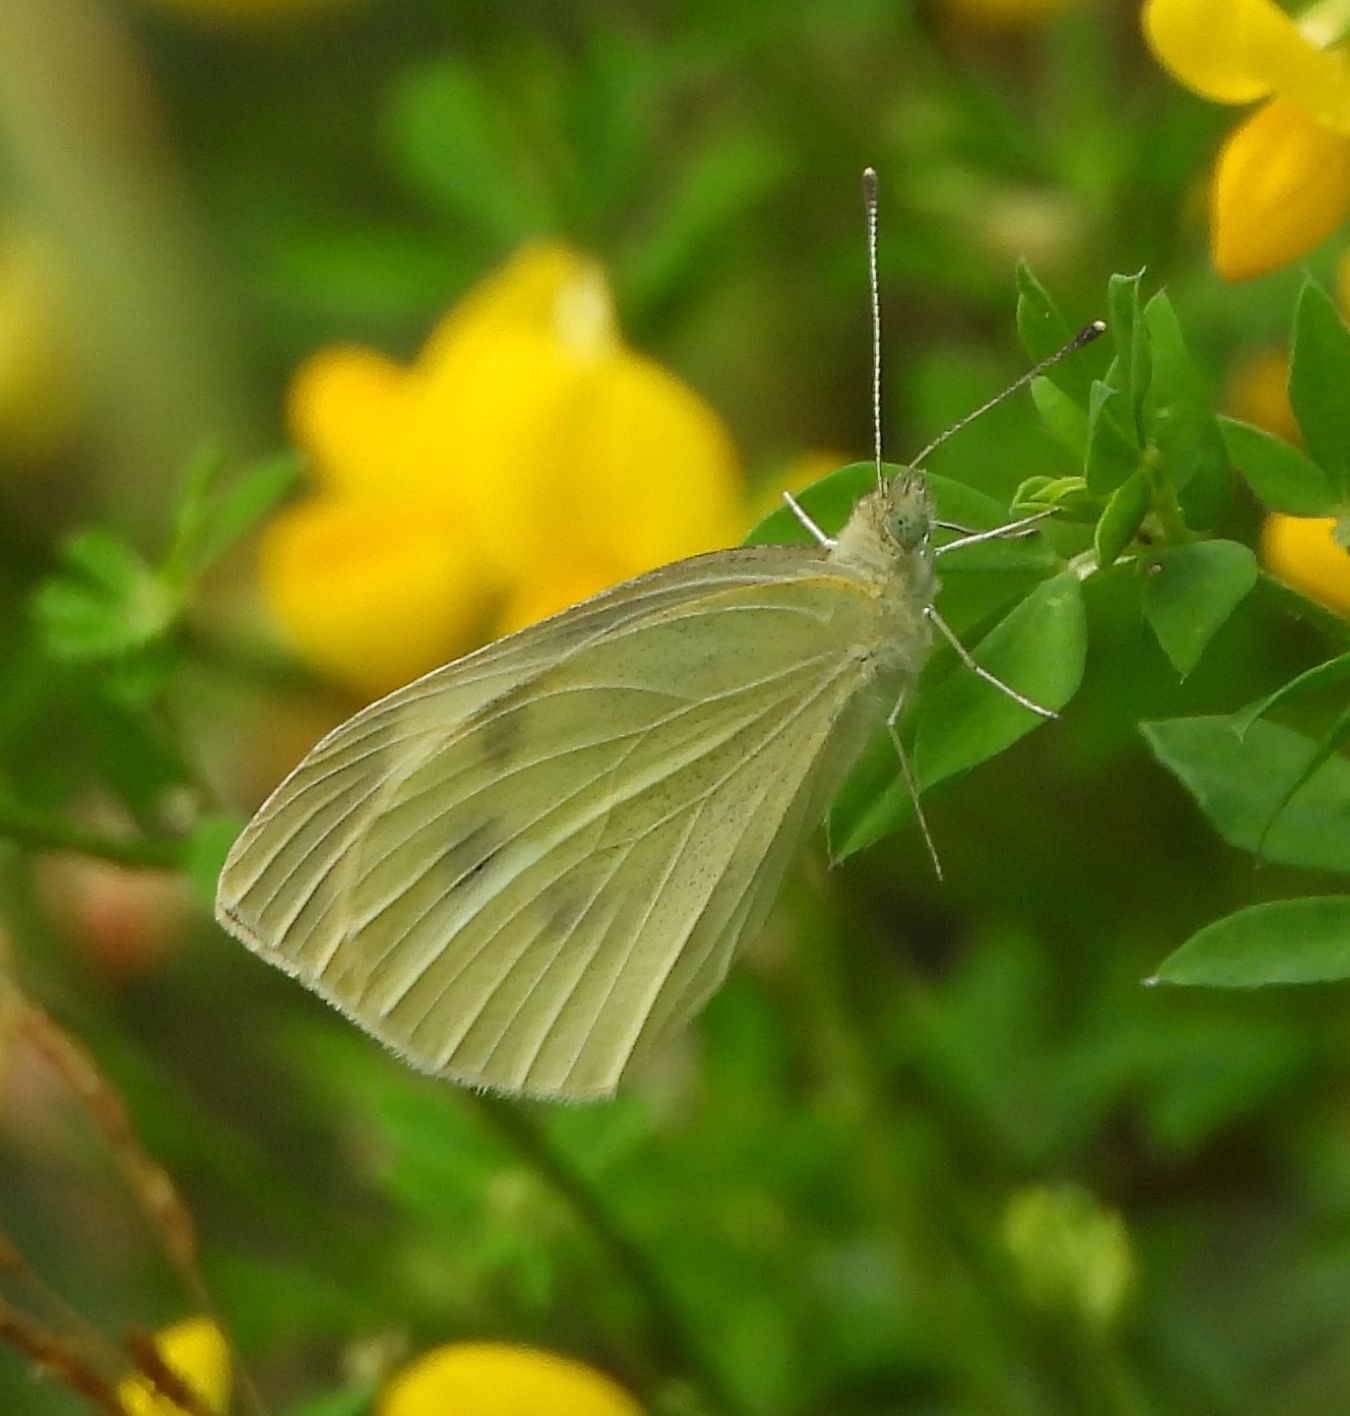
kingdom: Animalia
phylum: Arthropoda
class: Insecta
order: Lepidoptera
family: Pieridae
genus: Pieris
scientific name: Pieris rapae
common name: Small white
